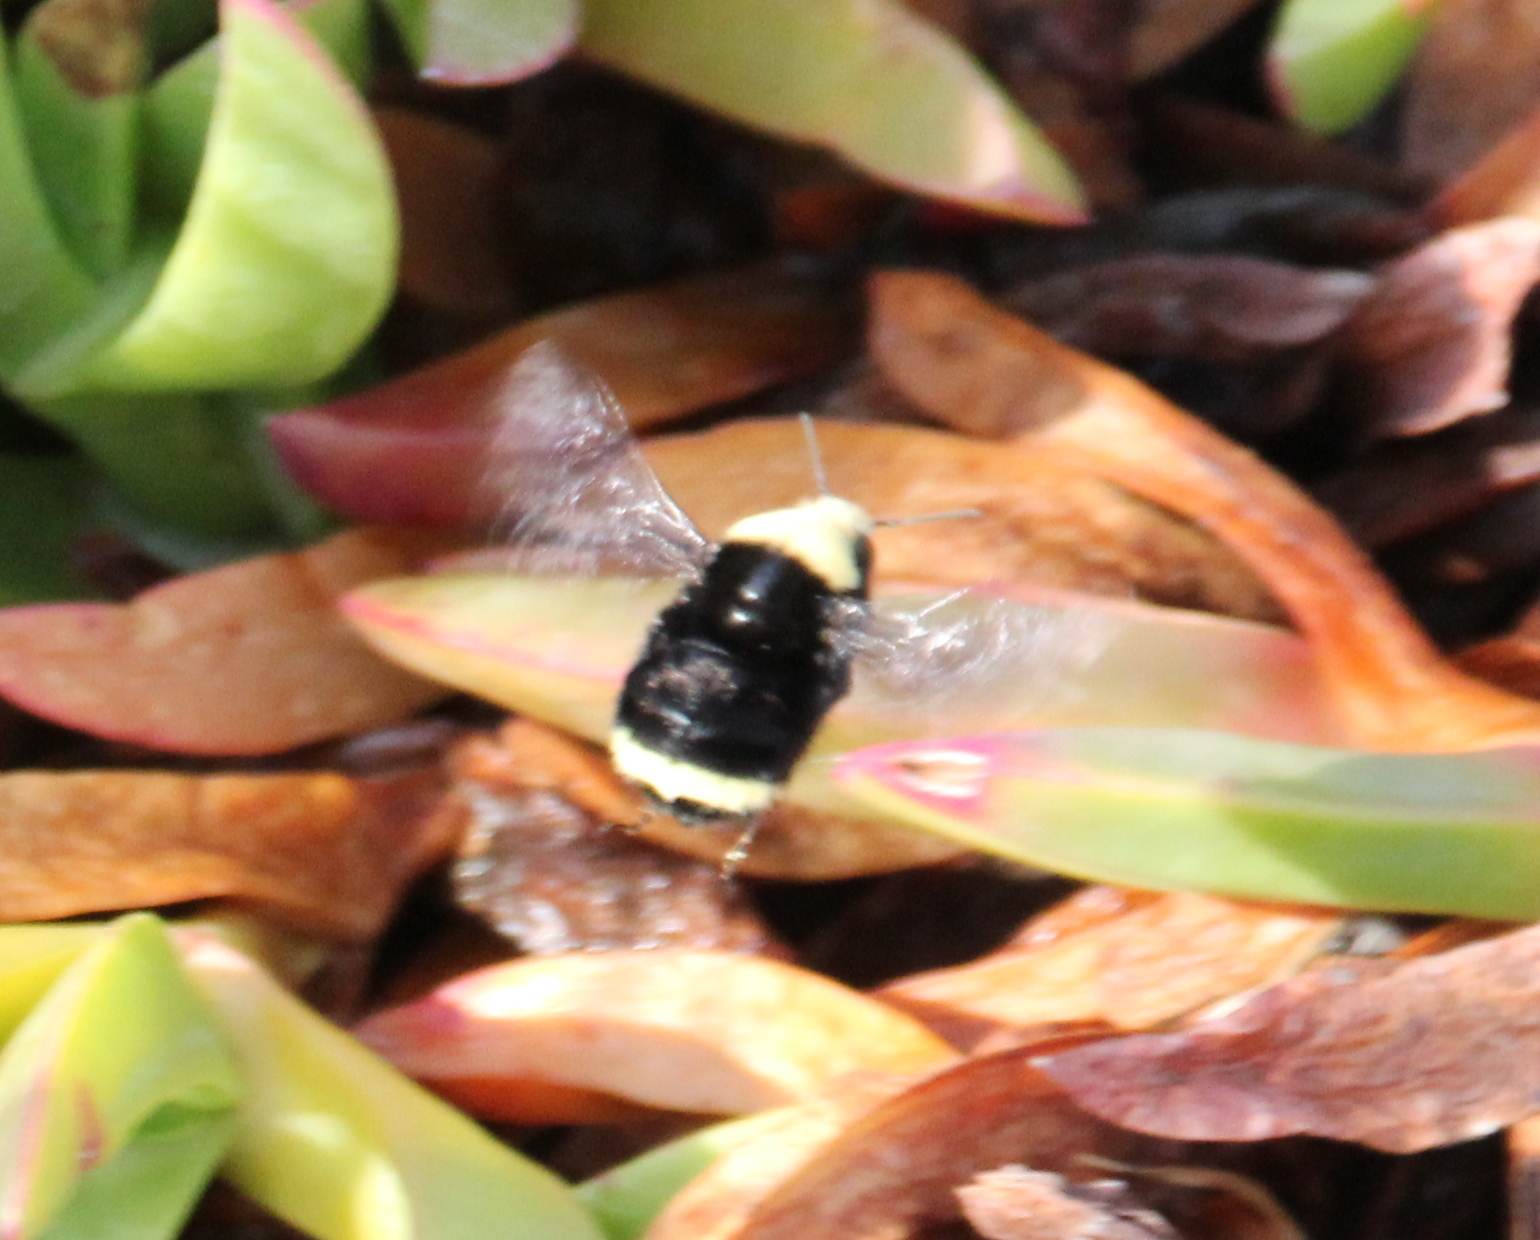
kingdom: Animalia
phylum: Arthropoda
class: Insecta
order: Hymenoptera
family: Apidae
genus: Bombus
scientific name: Bombus vosnesenskii
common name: Vosnesensky bumble bee
